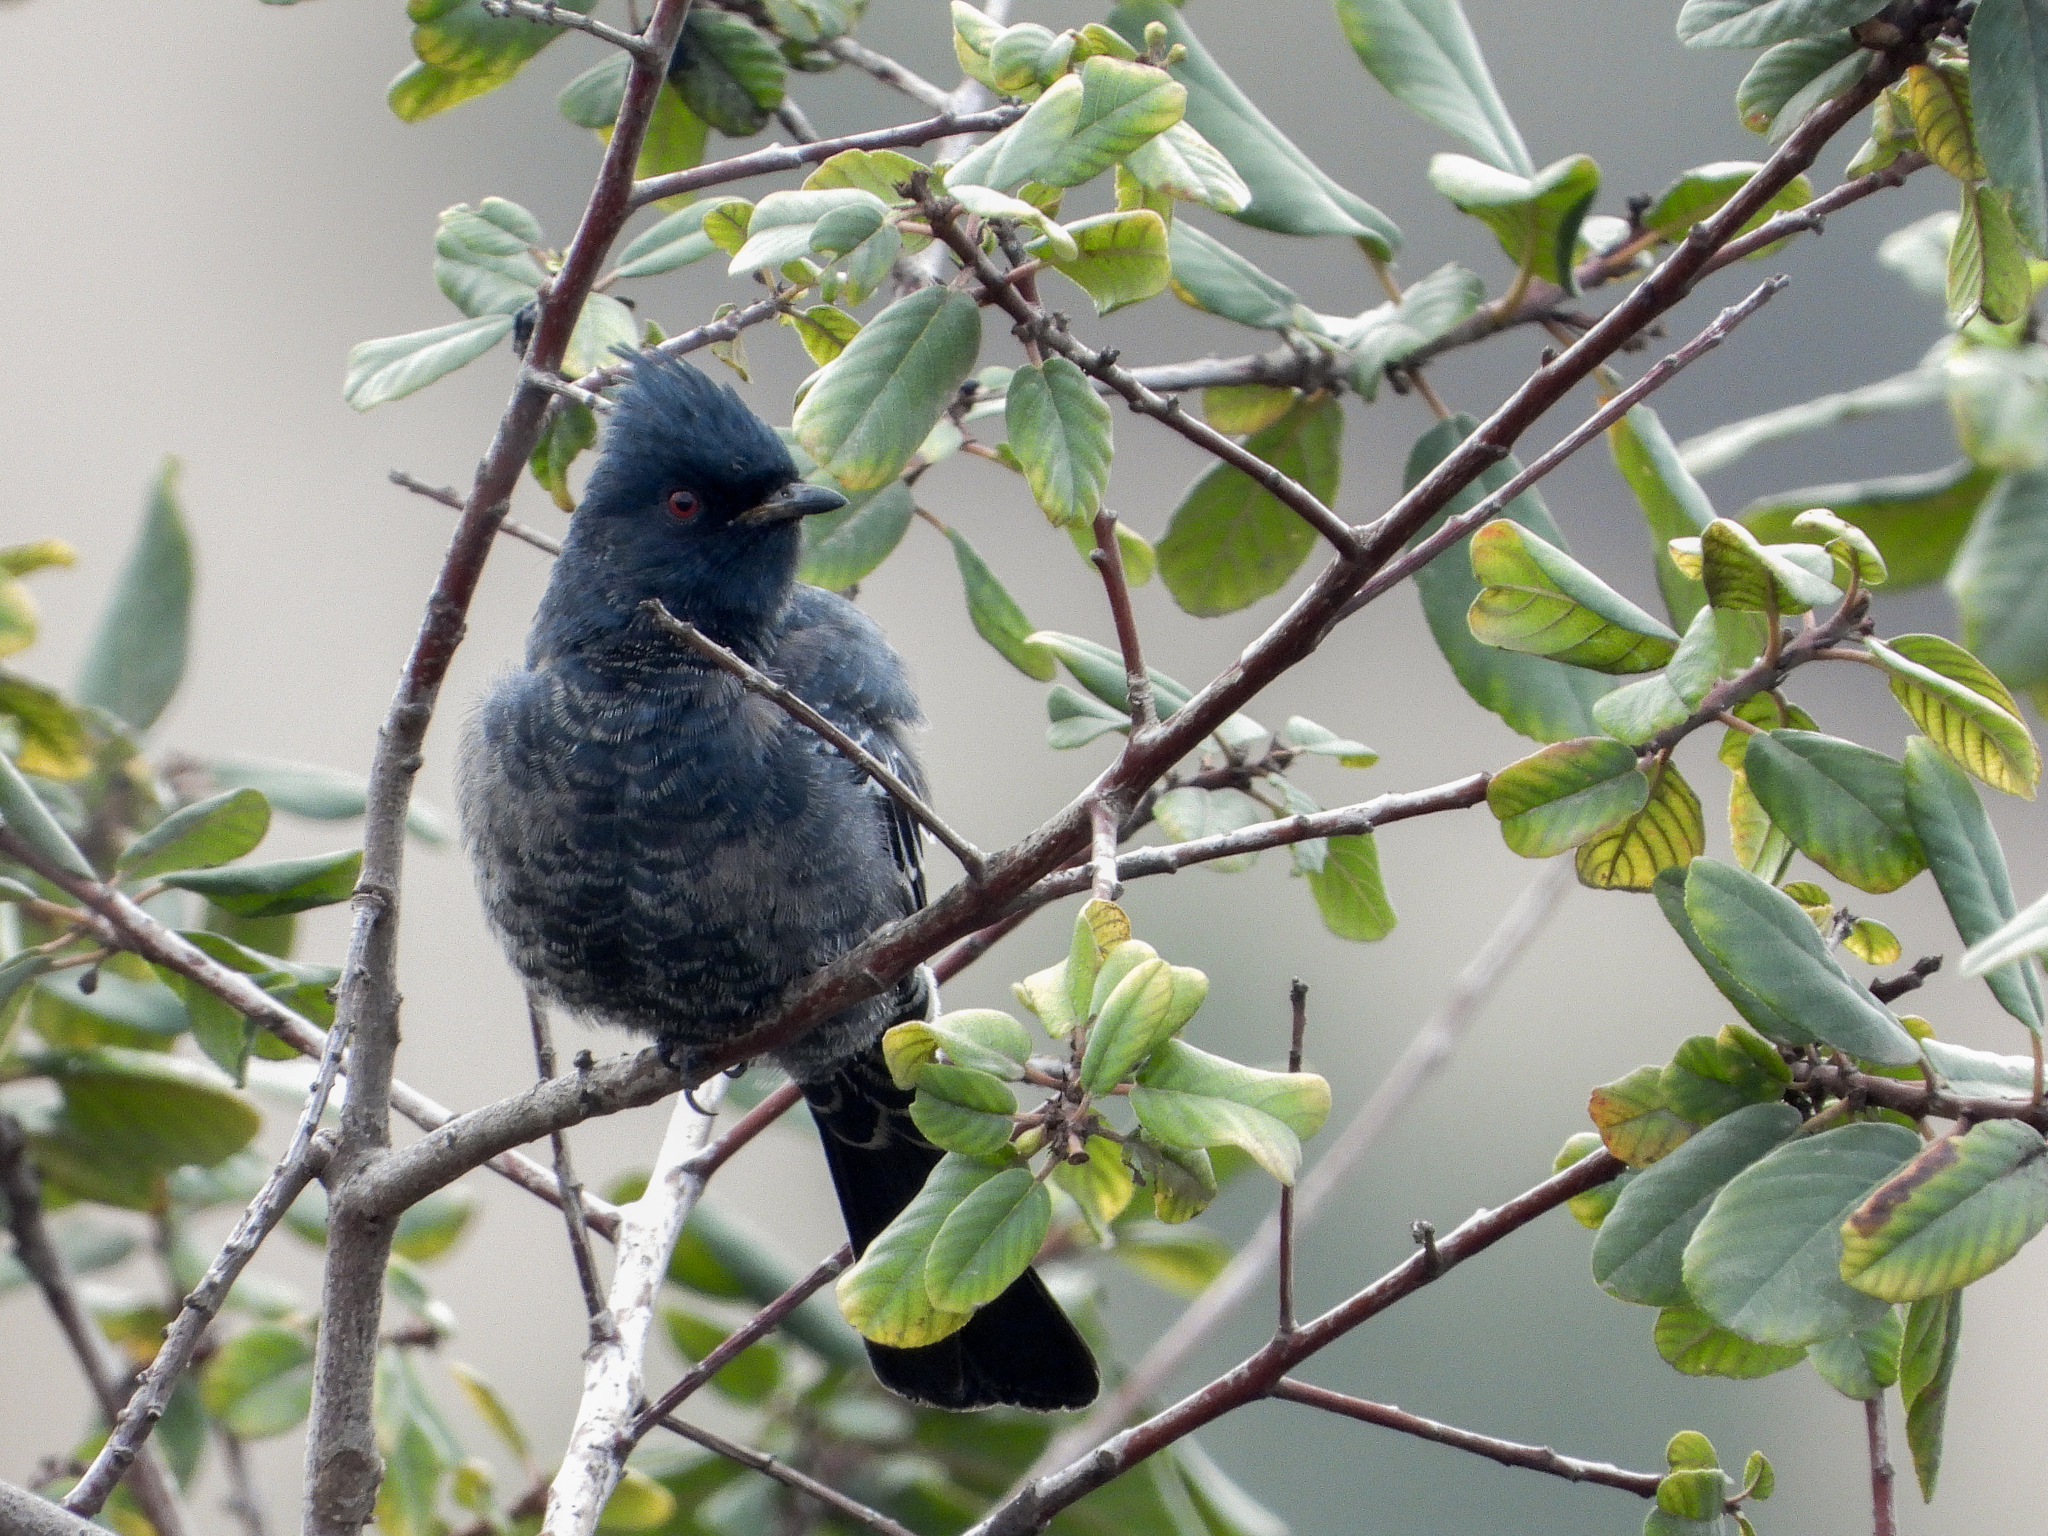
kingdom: Animalia
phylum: Chordata
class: Aves
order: Passeriformes
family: Ptilogonatidae
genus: Phainopepla
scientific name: Phainopepla nitens
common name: Phainopepla
